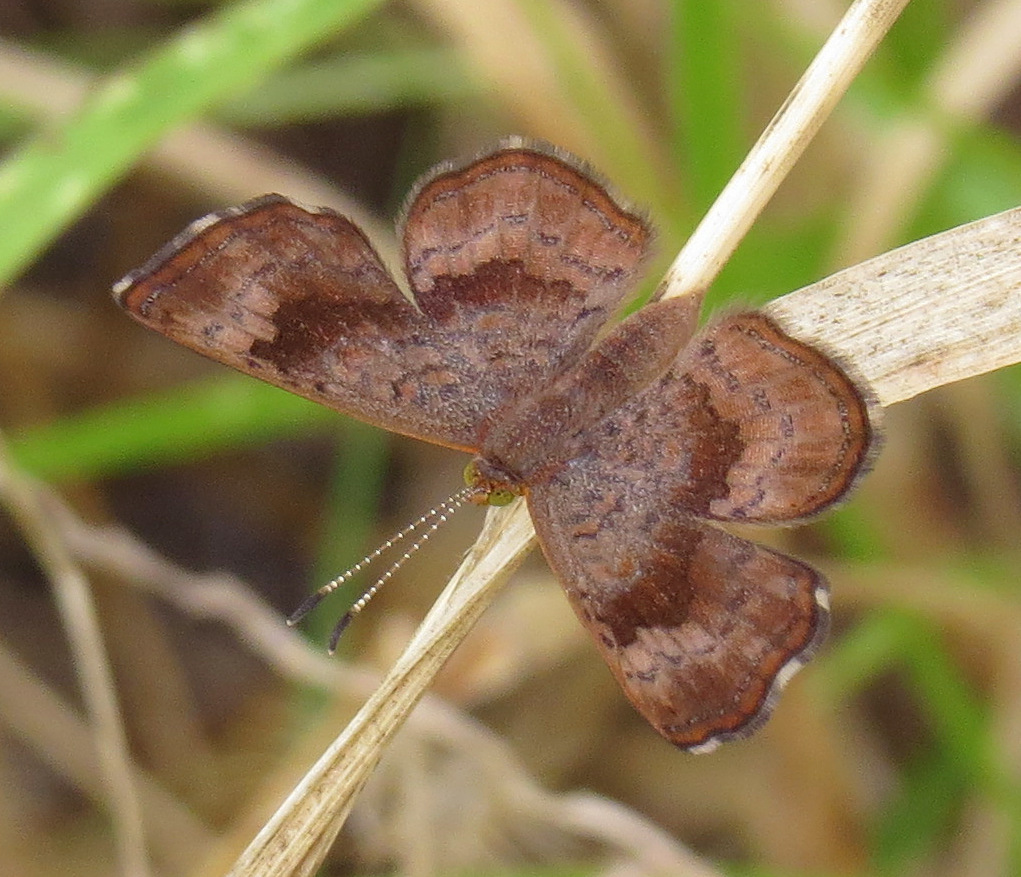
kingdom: Animalia
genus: Calephelis
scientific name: Calephelis nemesis
